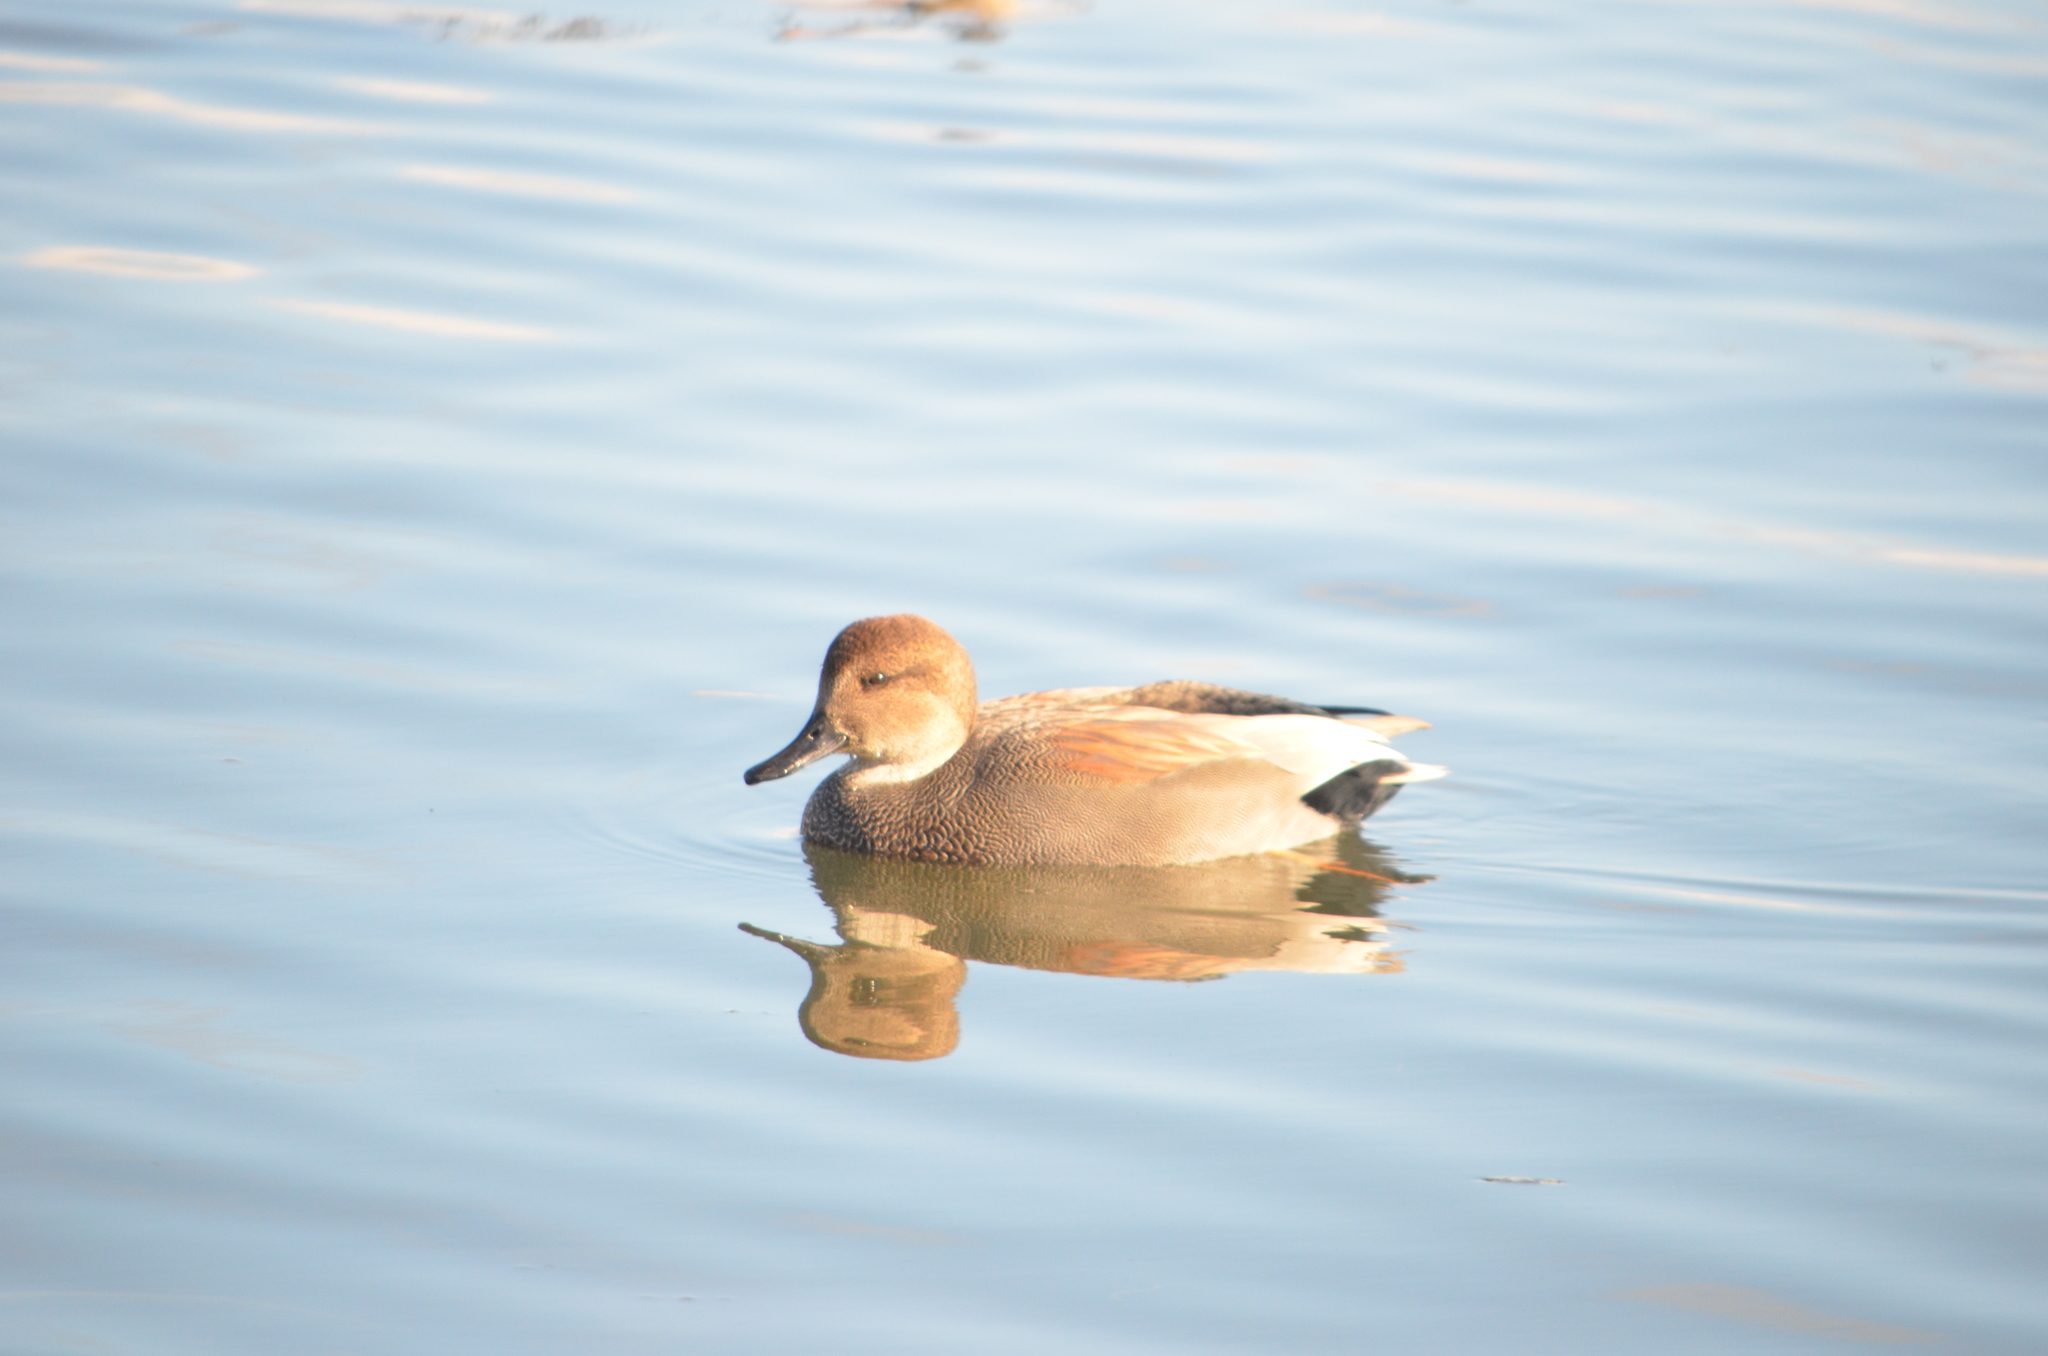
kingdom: Animalia
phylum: Chordata
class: Aves
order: Anseriformes
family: Anatidae
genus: Mareca
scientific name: Mareca strepera
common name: Gadwall
